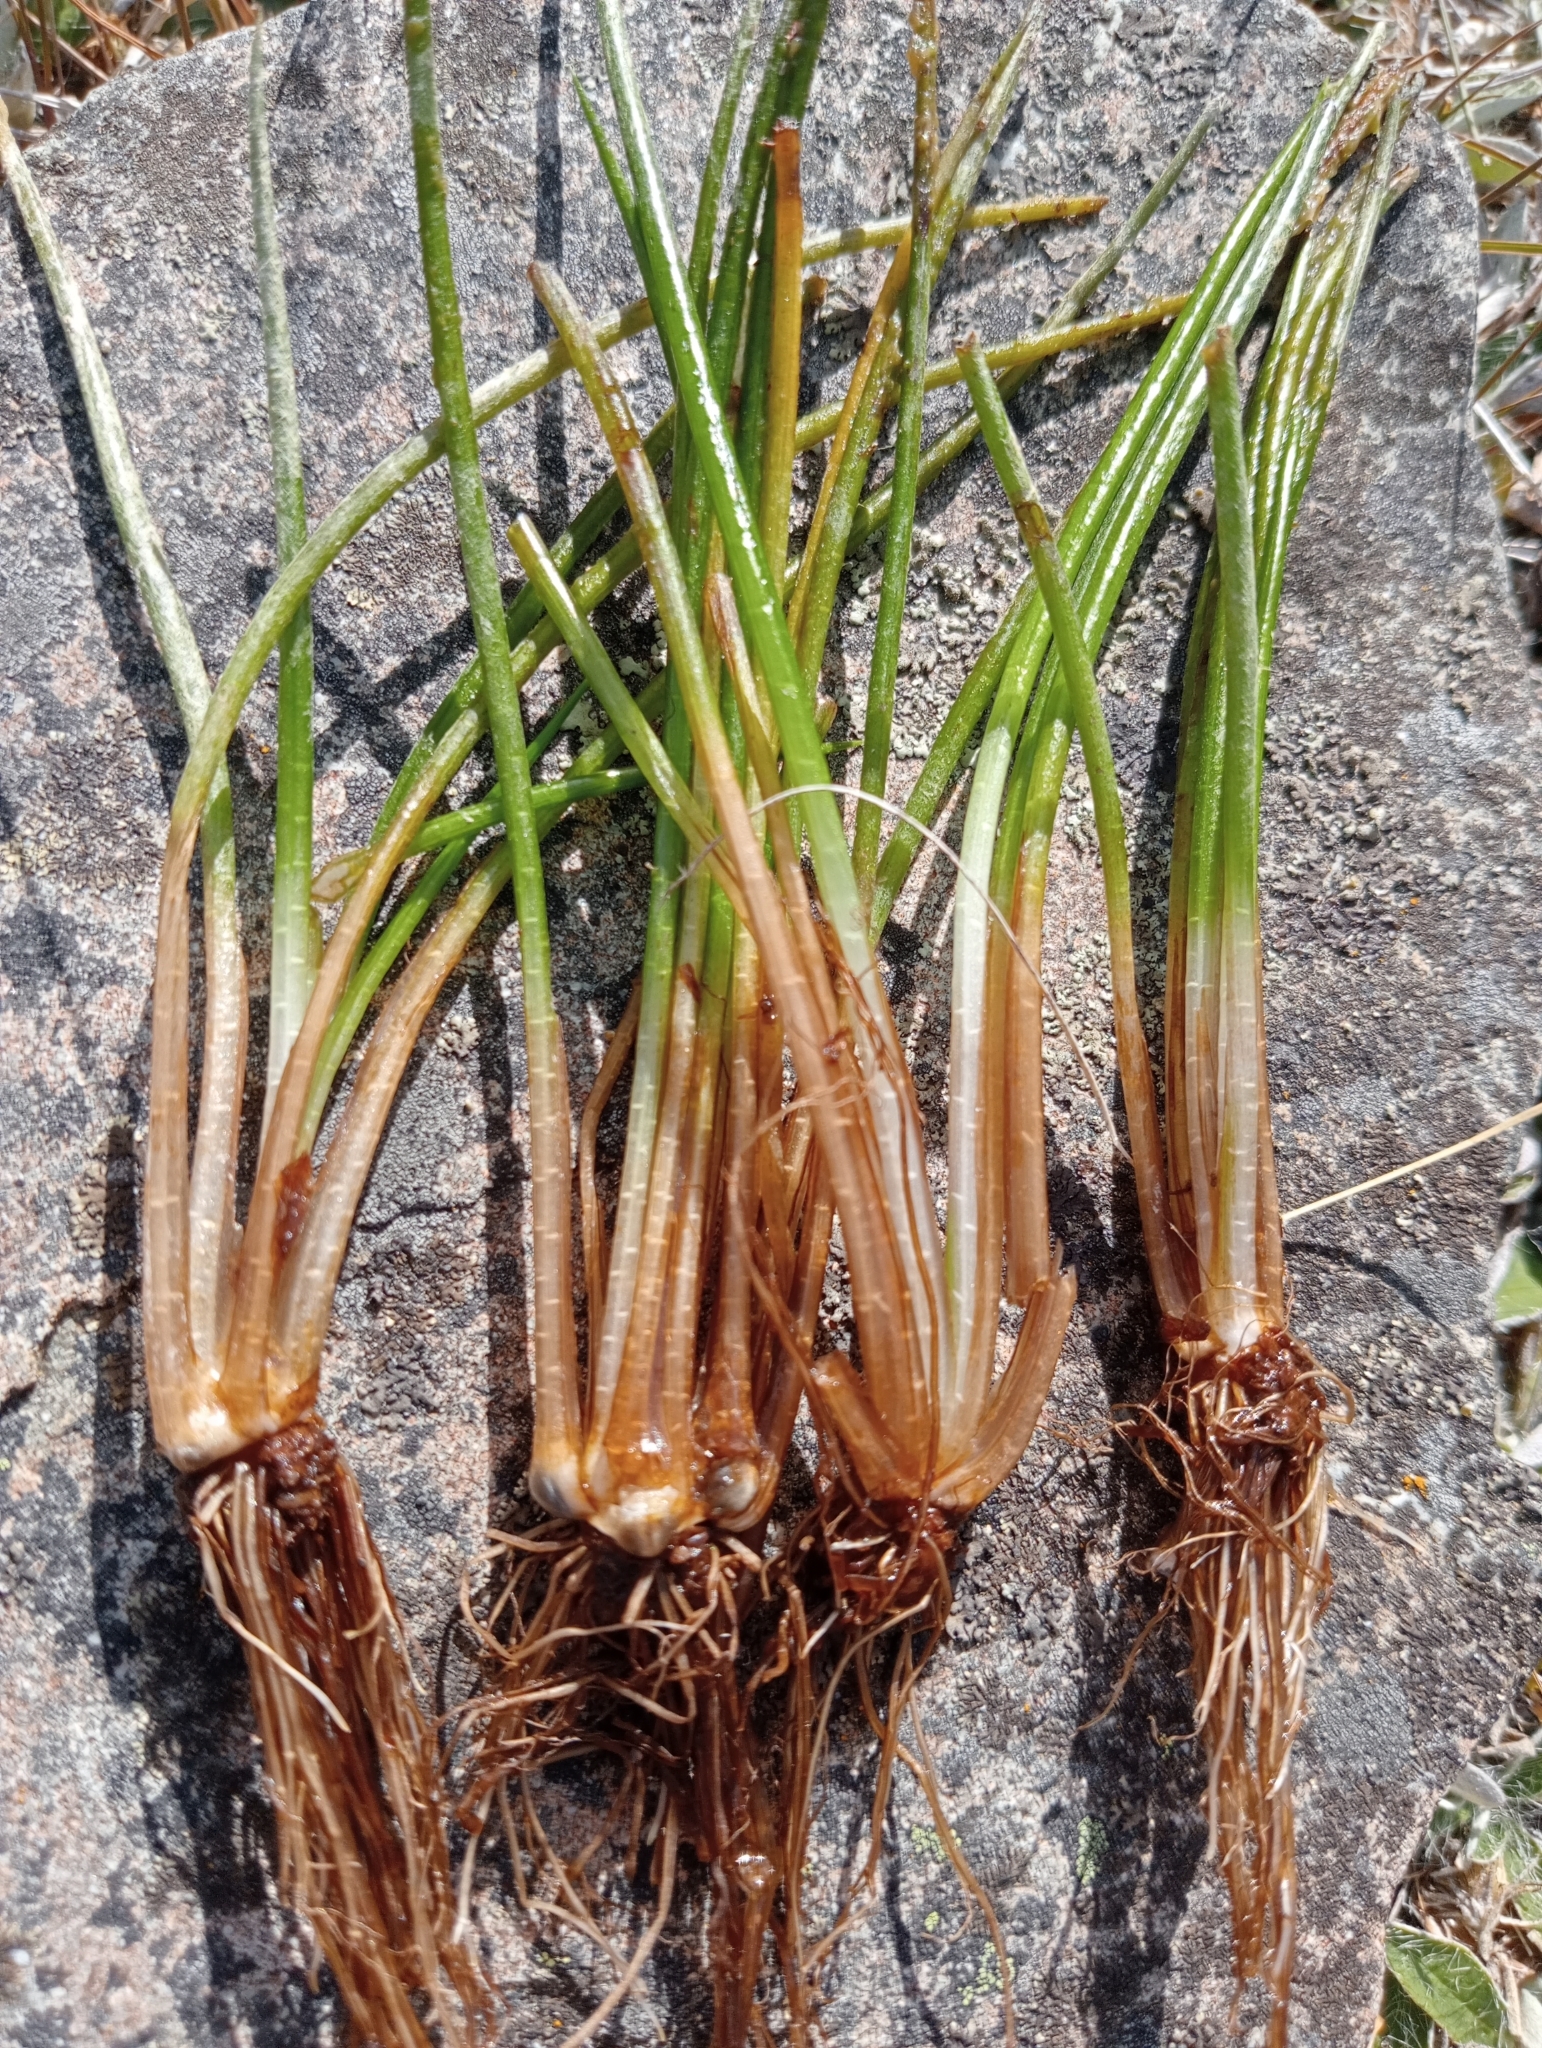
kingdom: Plantae
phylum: Tracheophyta
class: Lycopodiopsida
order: Isoetales
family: Isoetaceae
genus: Isoetes
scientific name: Isoetes alpina
